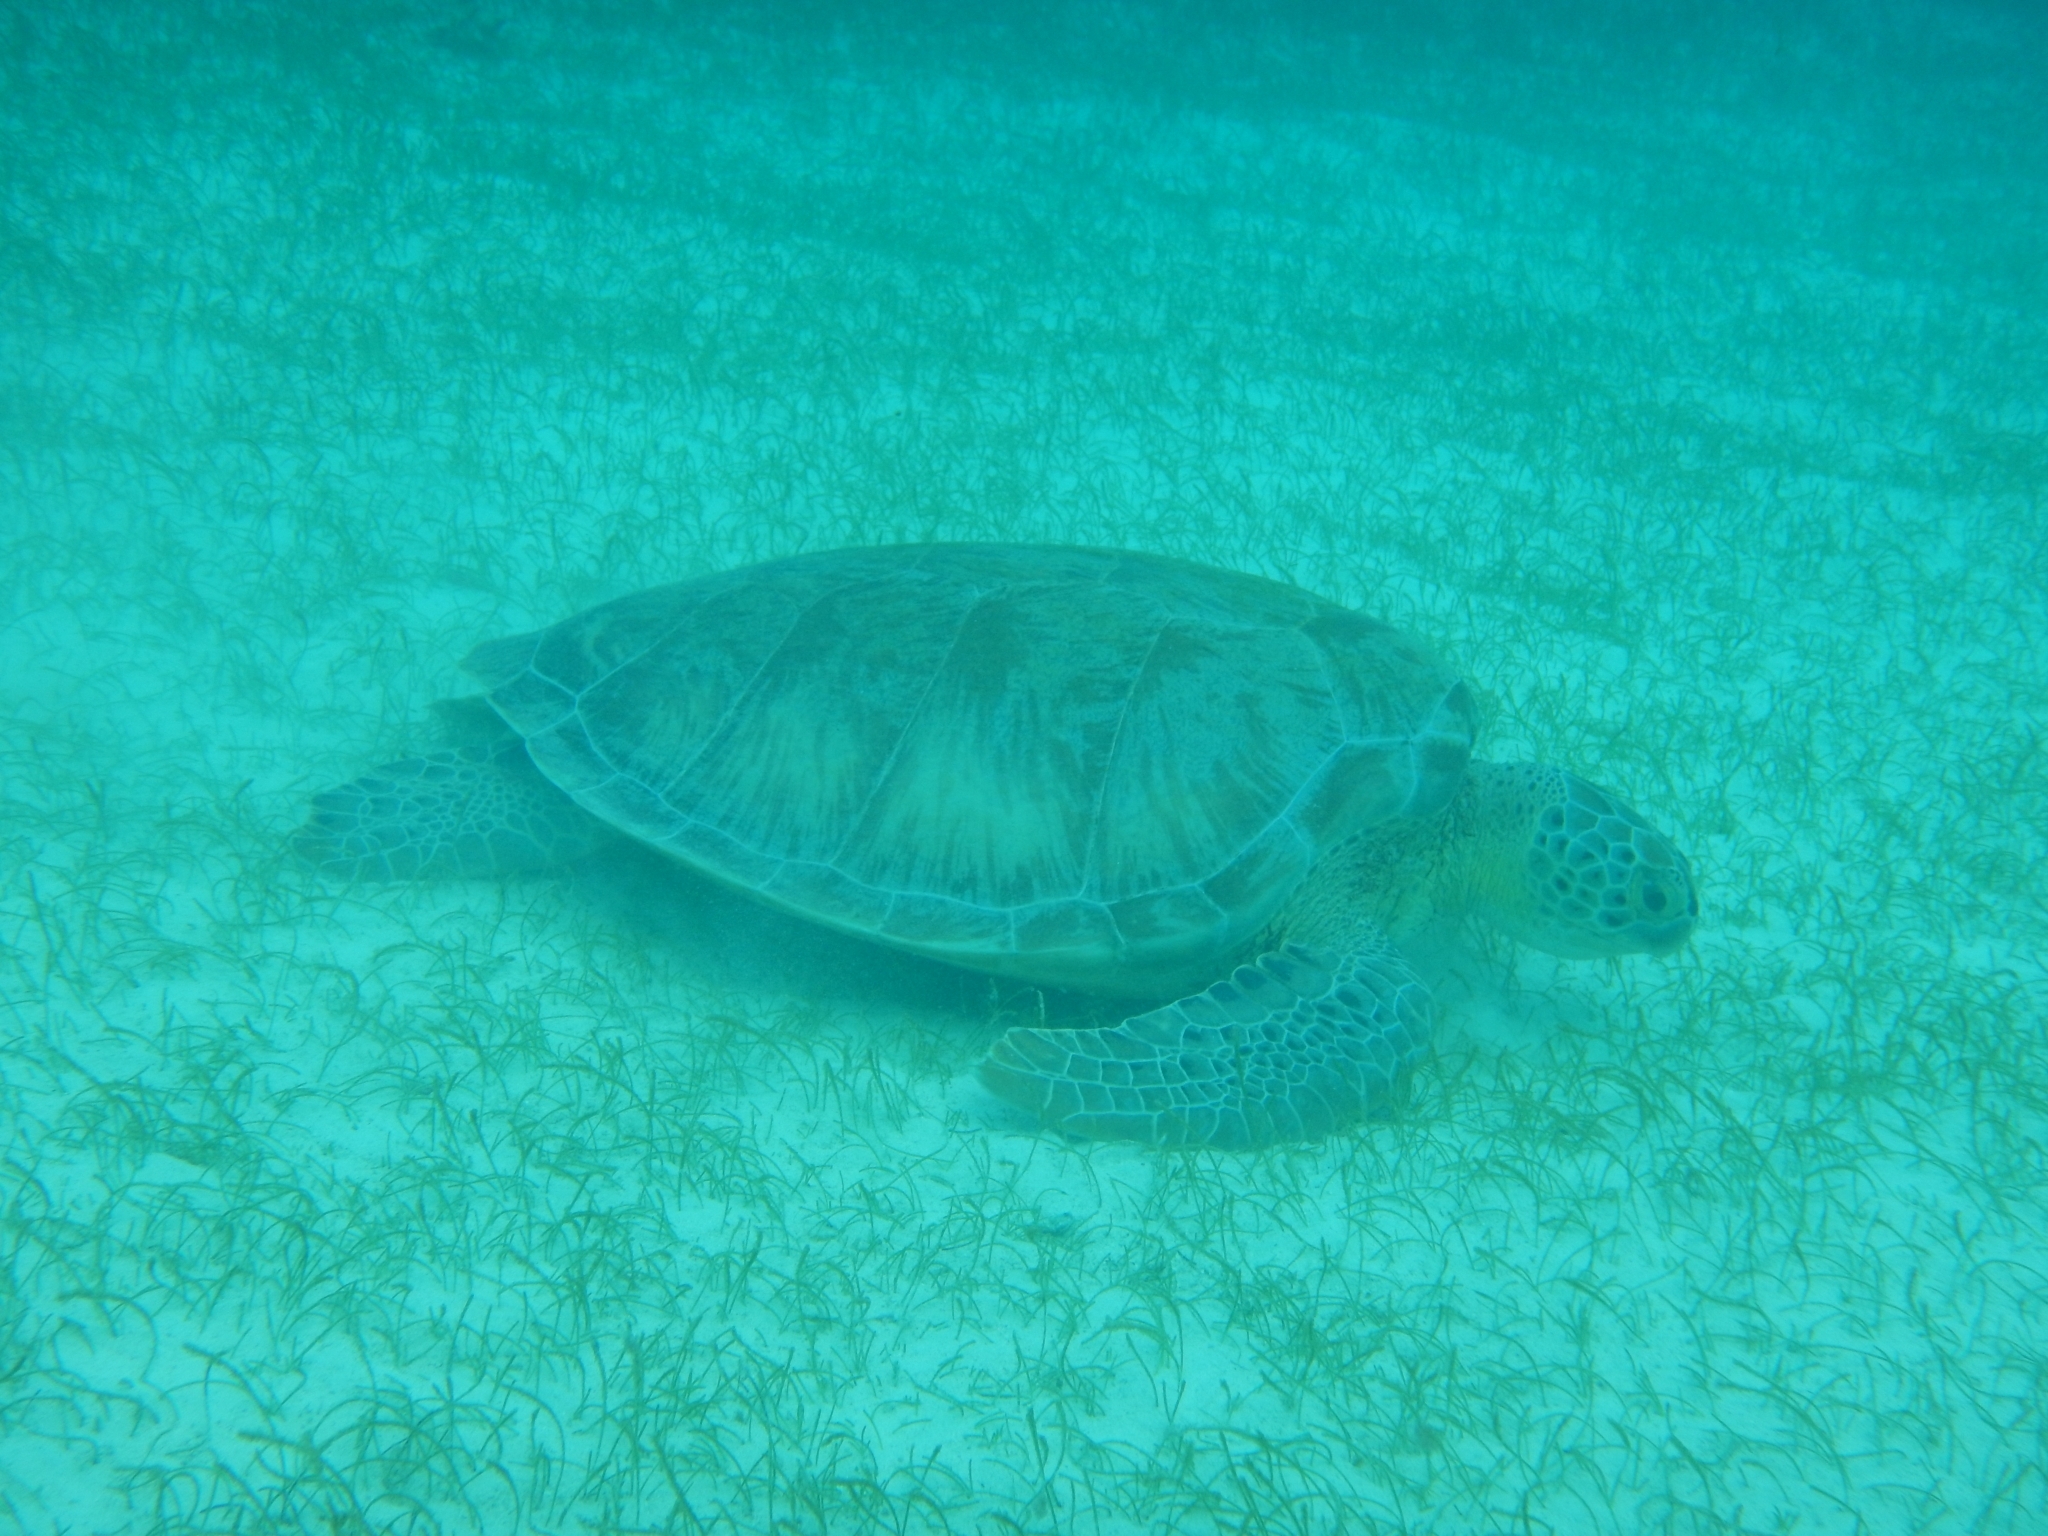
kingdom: Animalia
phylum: Chordata
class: Testudines
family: Cheloniidae
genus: Chelonia
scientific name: Chelonia mydas
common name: Green turtle
